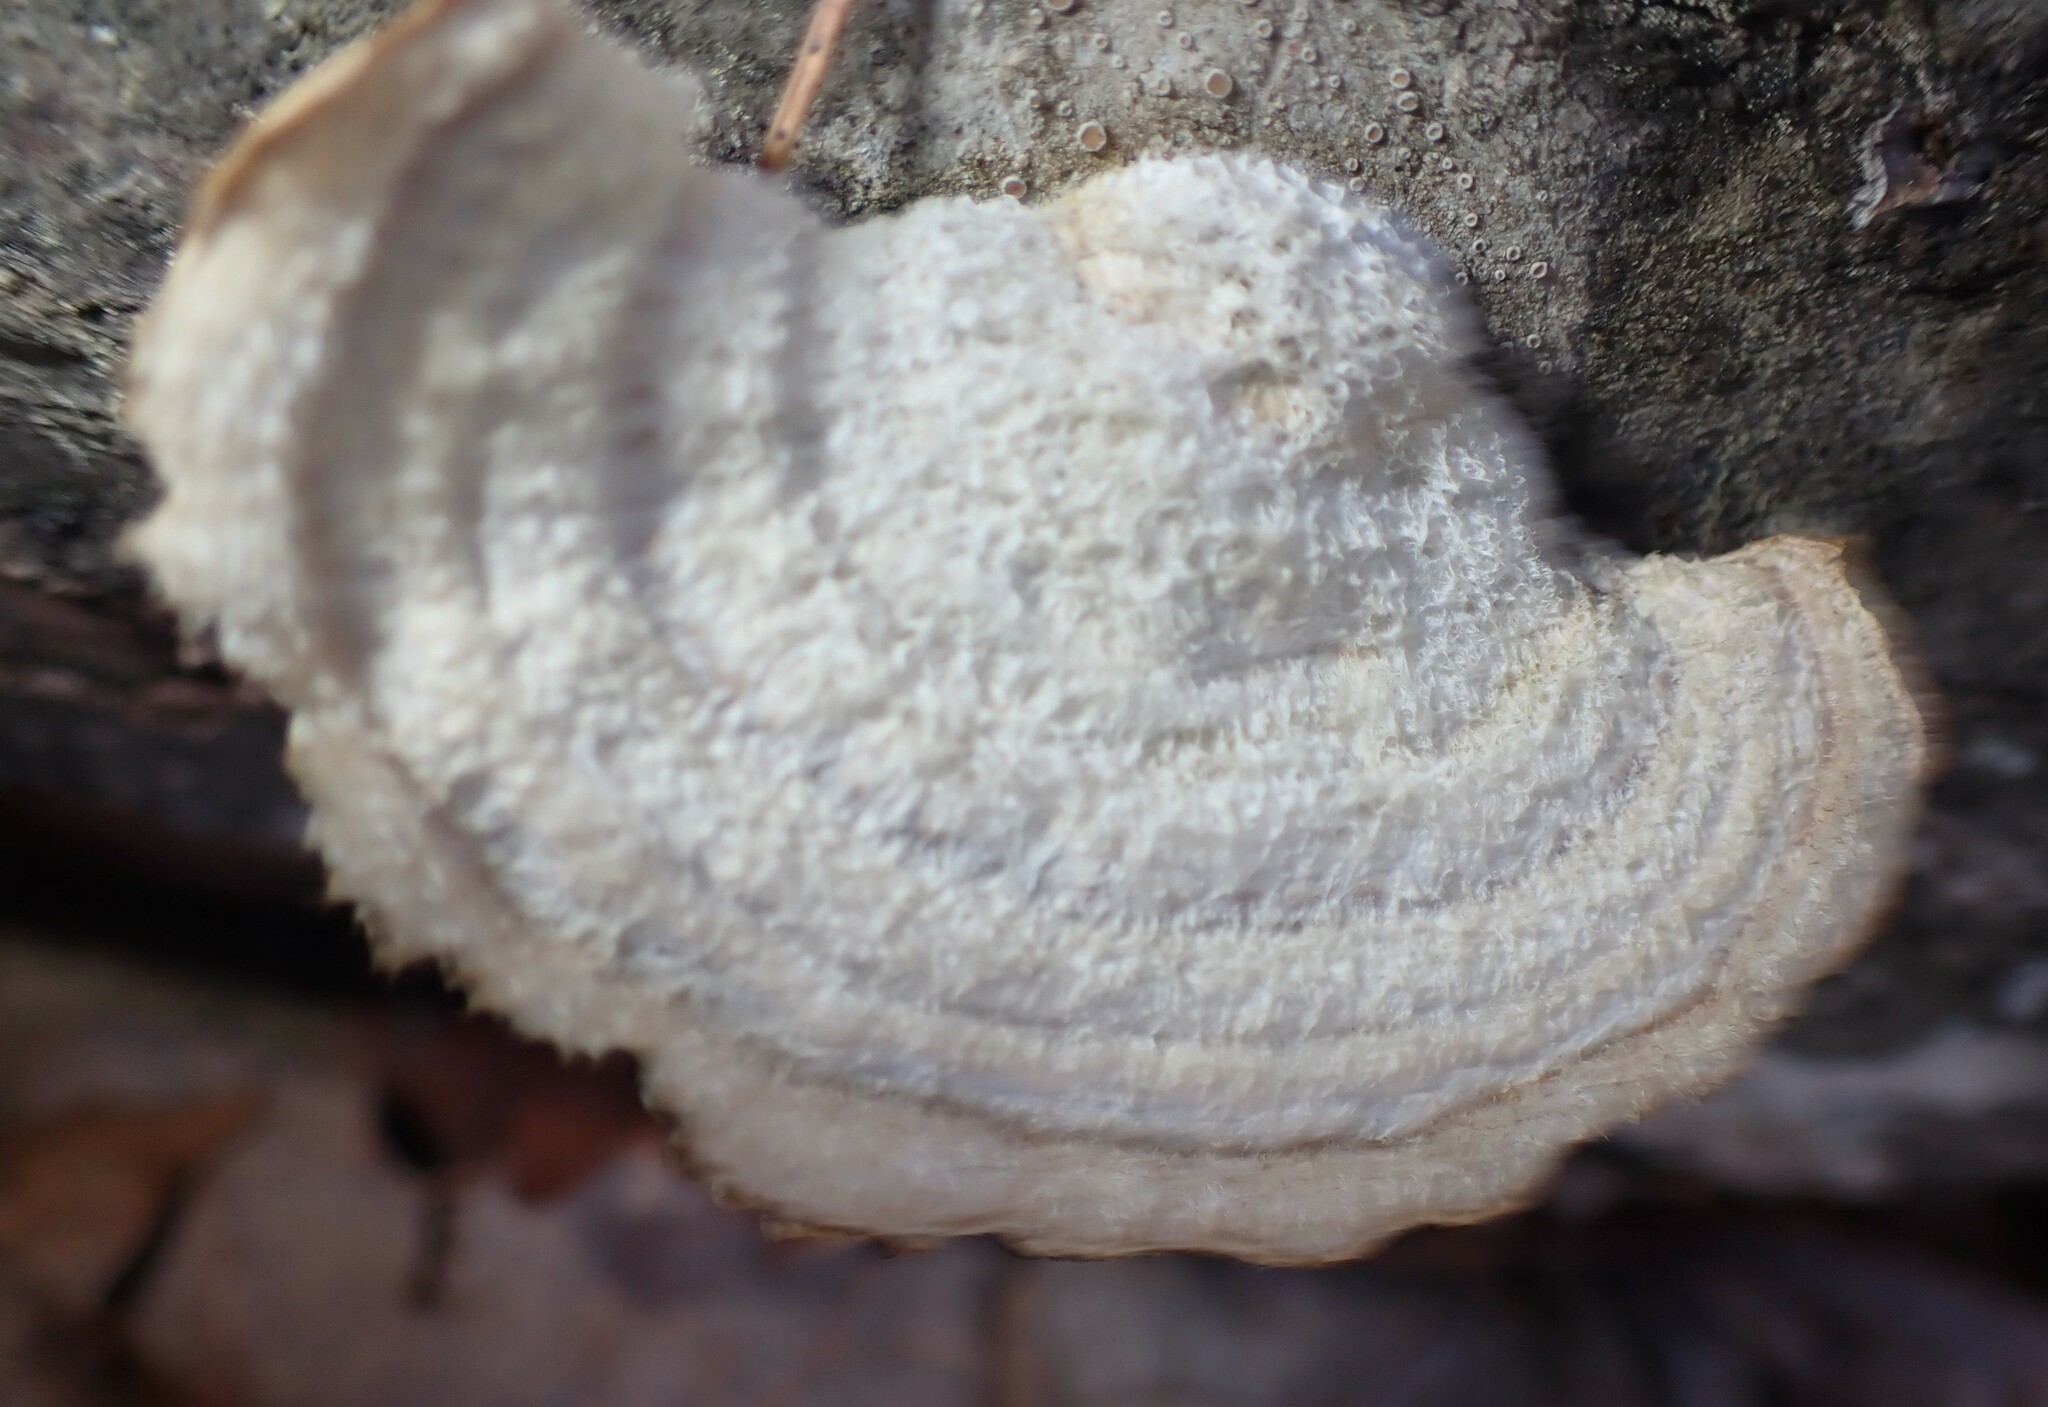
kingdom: Fungi
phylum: Basidiomycota
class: Agaricomycetes
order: Polyporales
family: Polyporaceae
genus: Trametes
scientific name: Trametes hirsuta
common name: Hairy bracket
